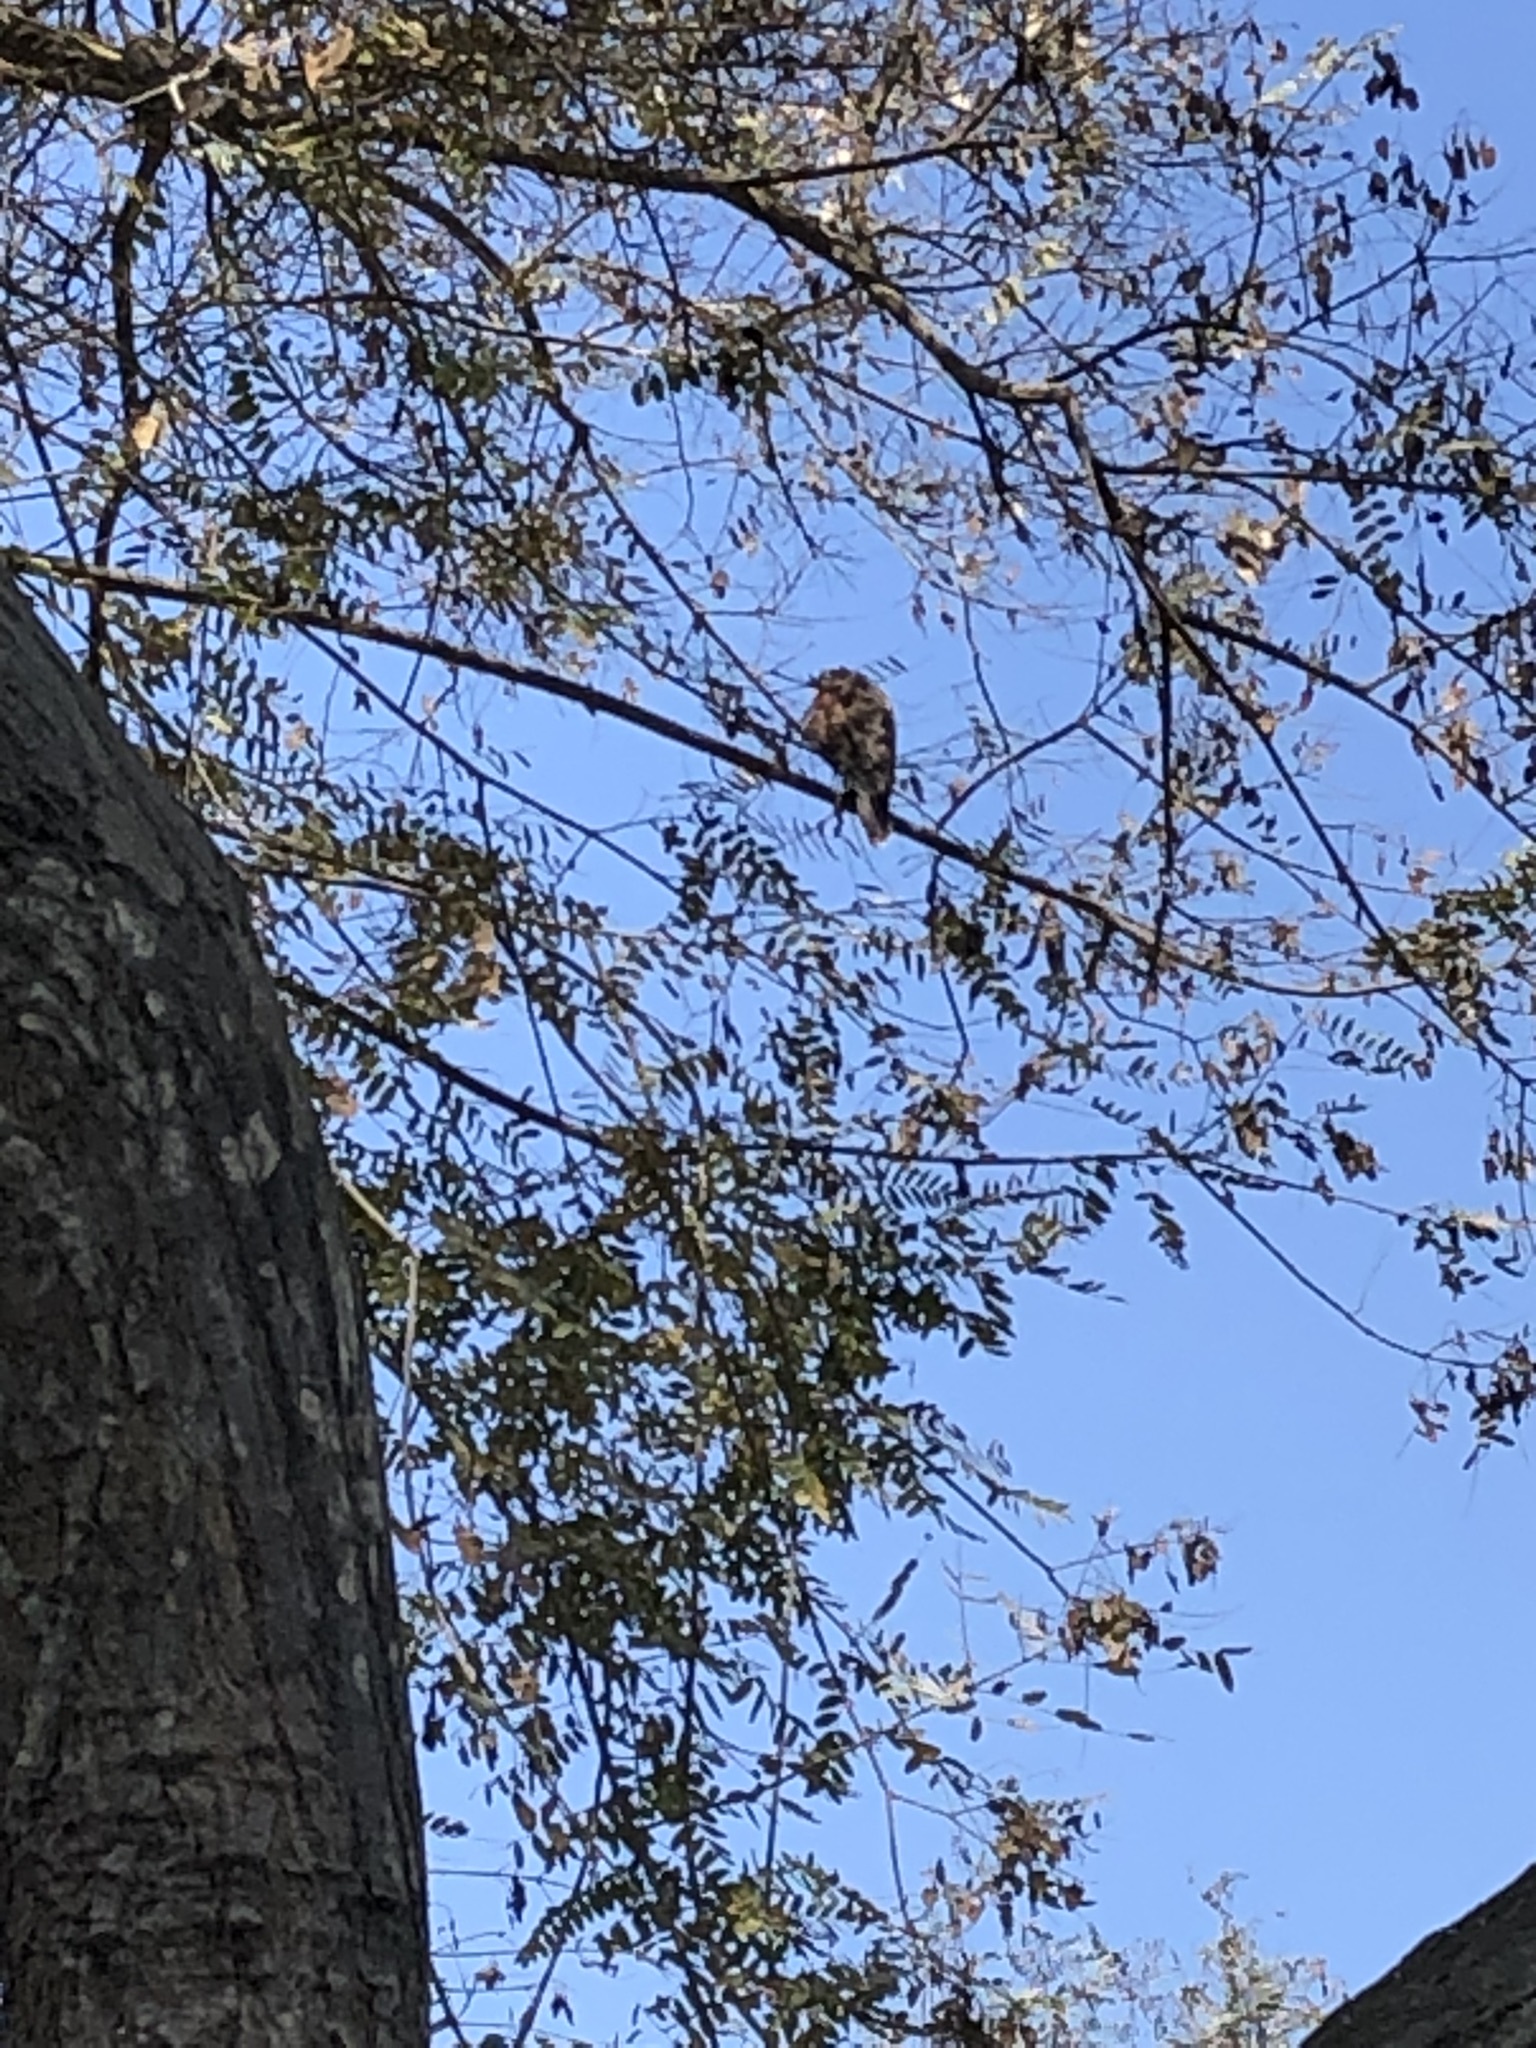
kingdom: Animalia
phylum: Chordata
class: Aves
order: Accipitriformes
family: Accipitridae
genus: Parabuteo
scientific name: Parabuteo unicinctus
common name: Harris's hawk
